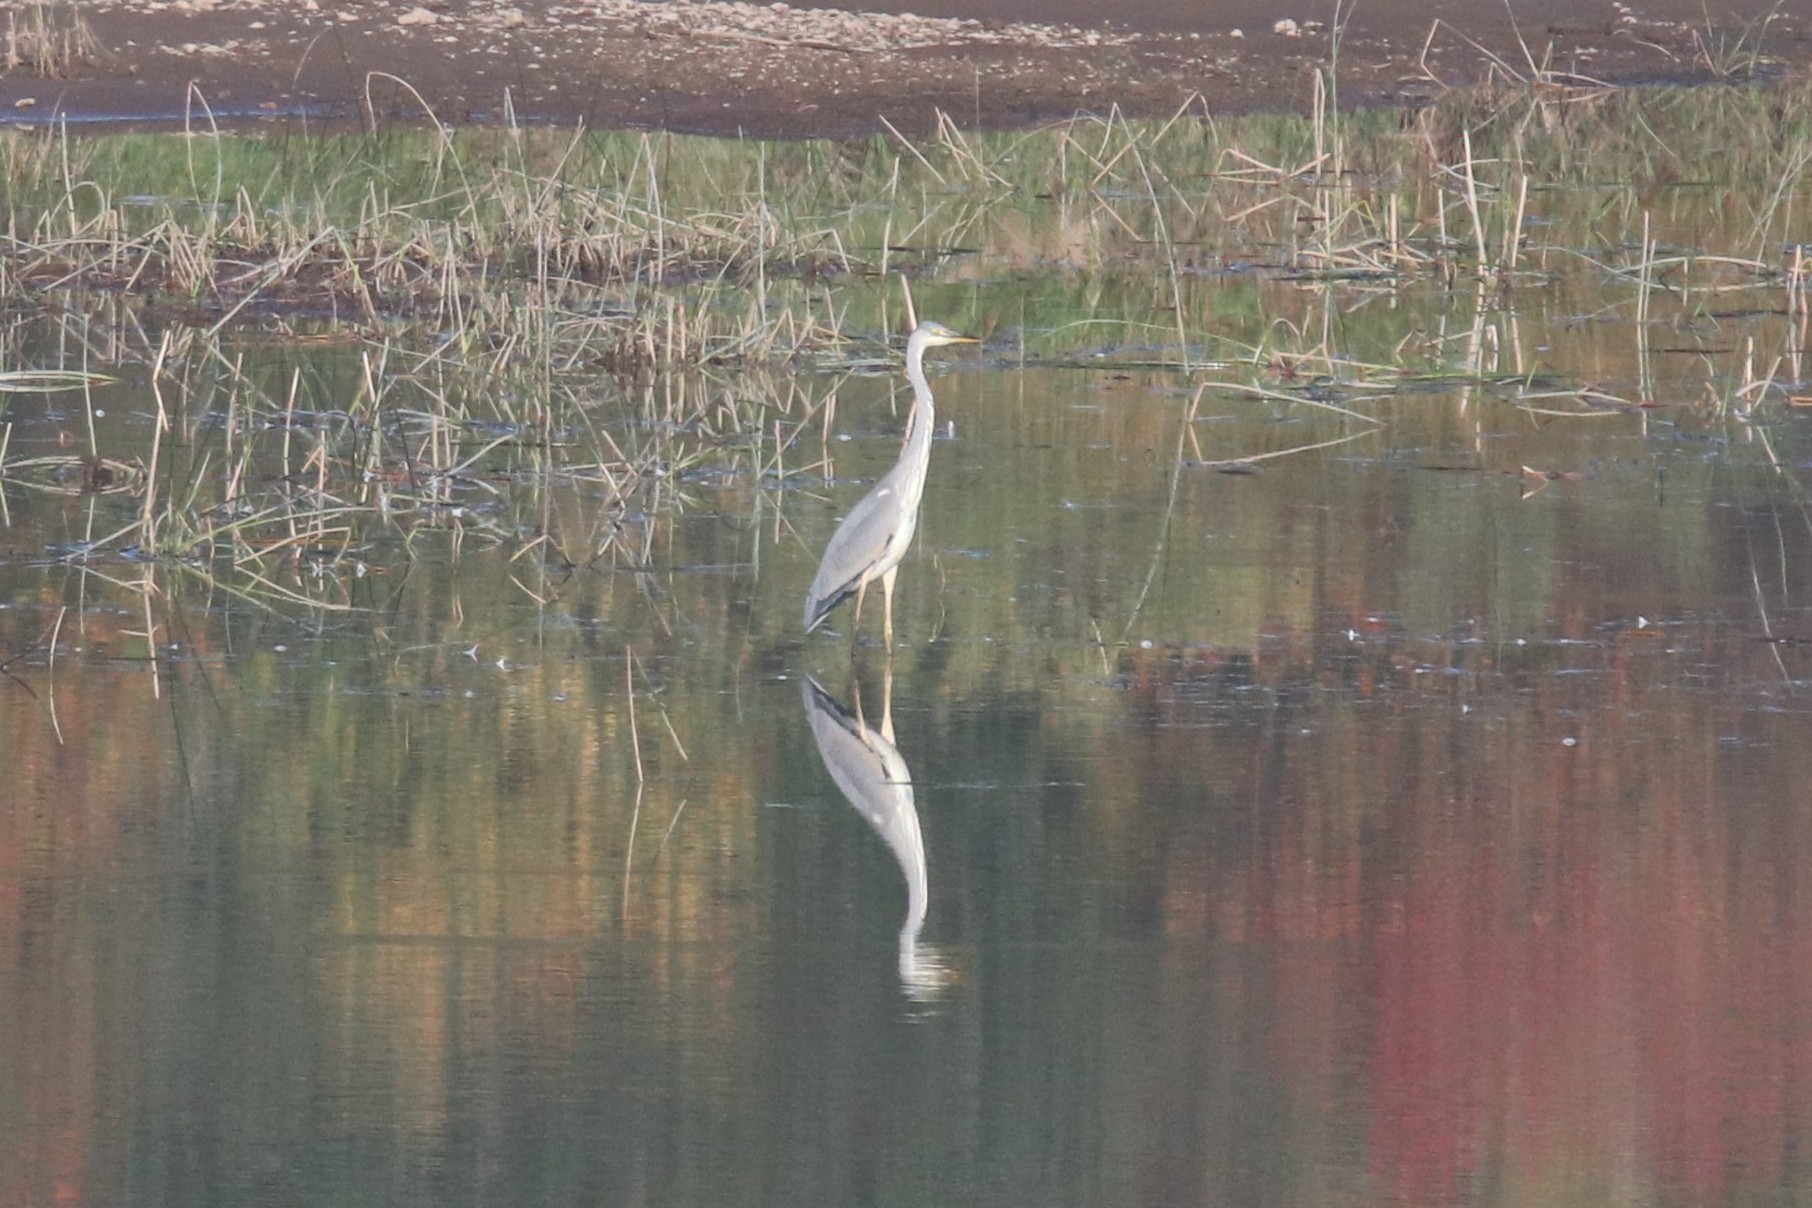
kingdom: Animalia
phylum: Chordata
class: Aves
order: Pelecaniformes
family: Ardeidae
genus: Ardea
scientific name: Ardea cinerea
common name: Grey heron
